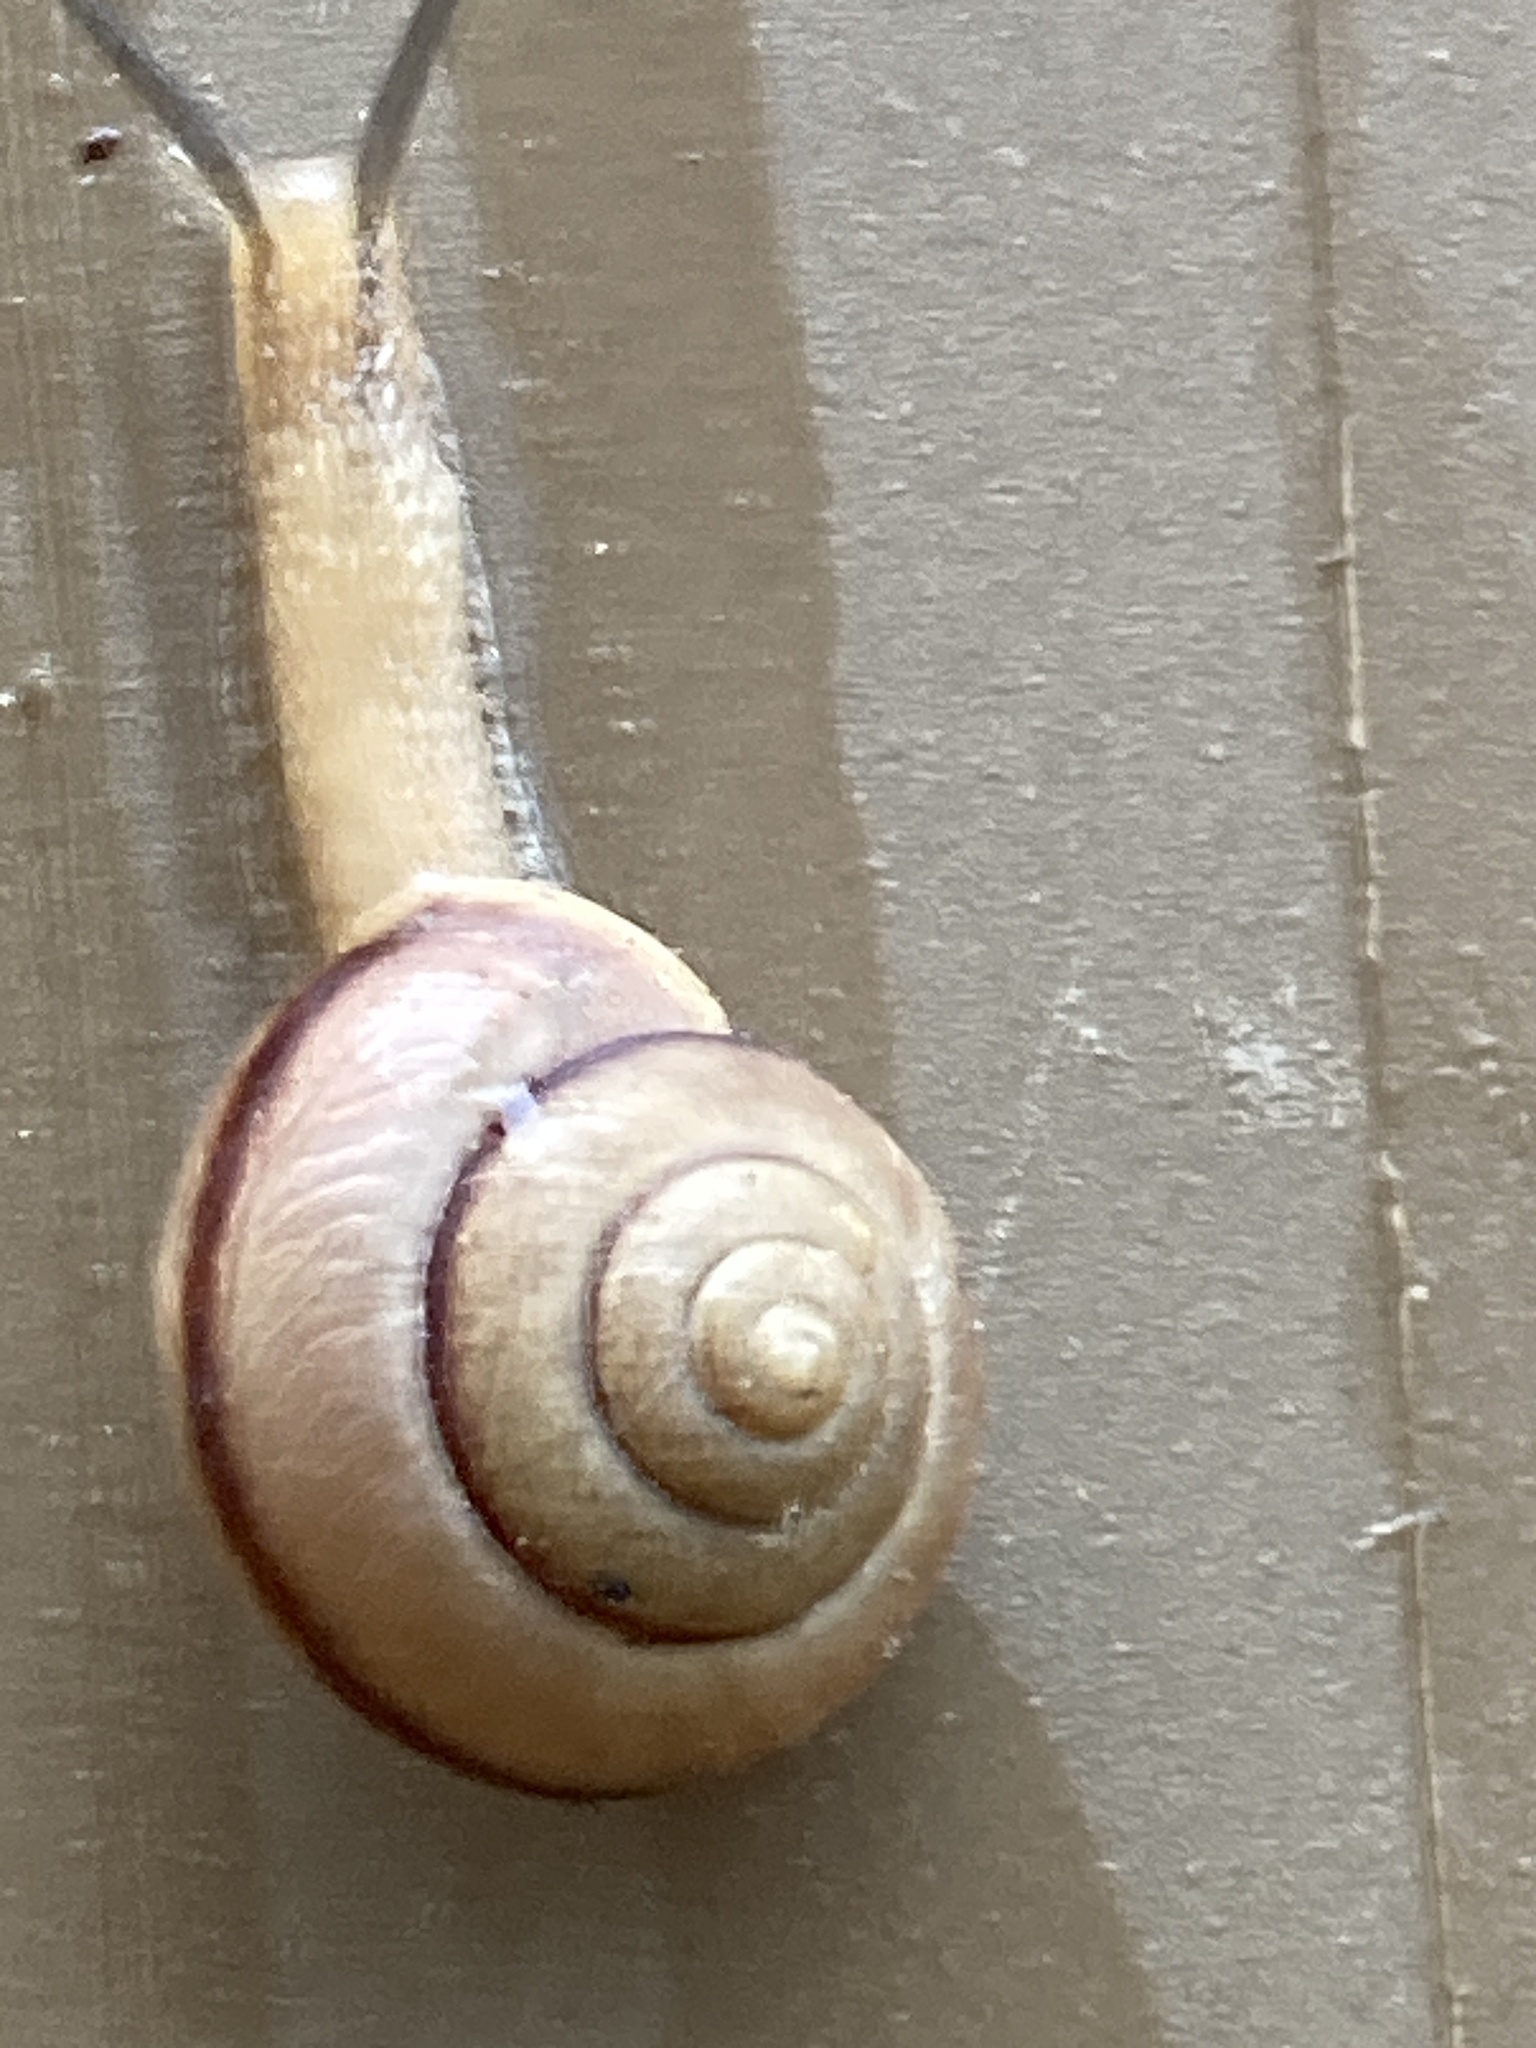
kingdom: Animalia
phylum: Mollusca
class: Gastropoda
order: Stylommatophora
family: Camaenidae
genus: Bradybaena
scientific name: Bradybaena similaris
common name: Asian trampsnail
